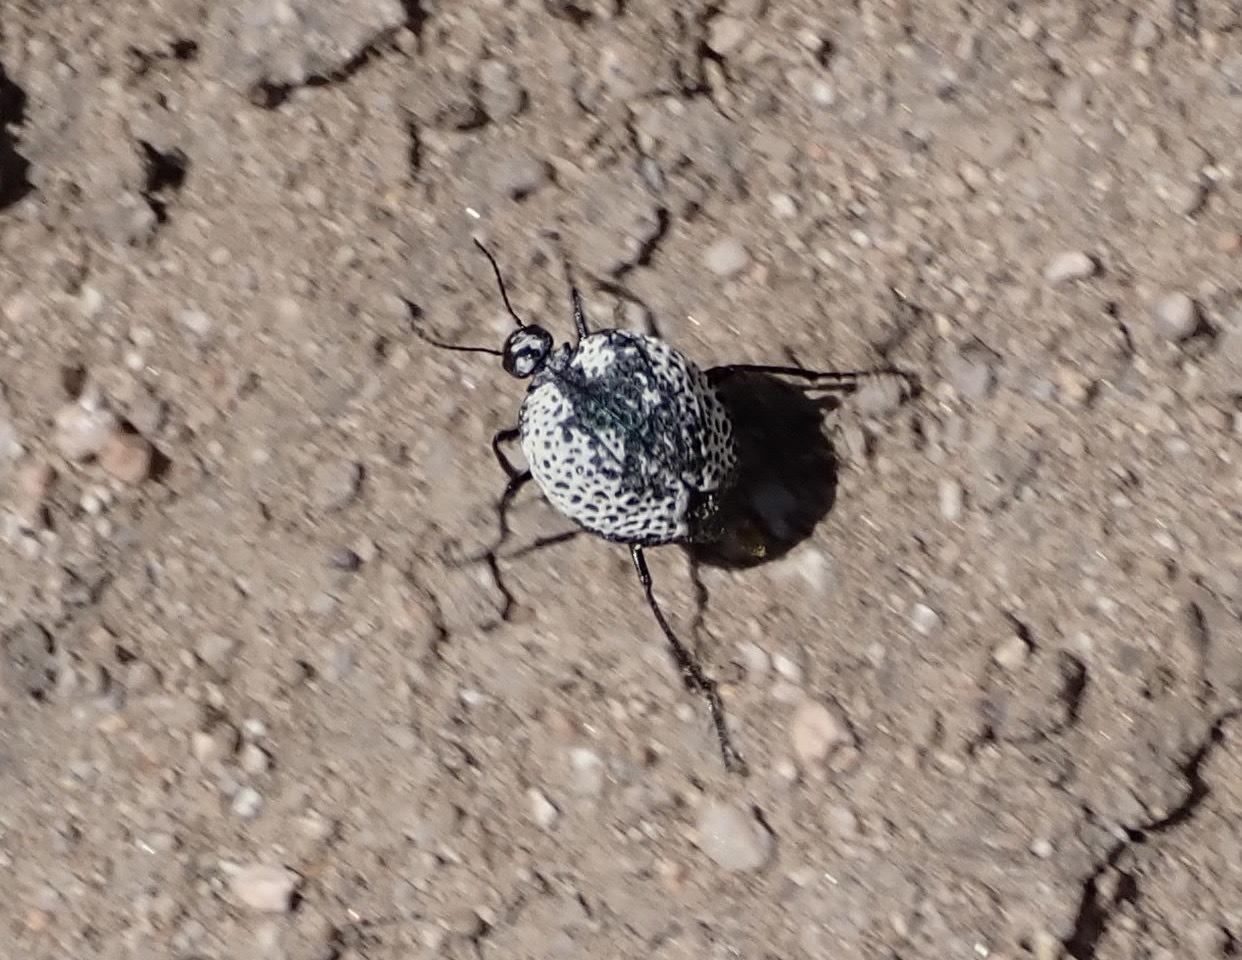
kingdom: Animalia
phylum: Arthropoda
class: Insecta
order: Coleoptera
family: Meloidae
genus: Cysteodemus
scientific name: Cysteodemus armatus
